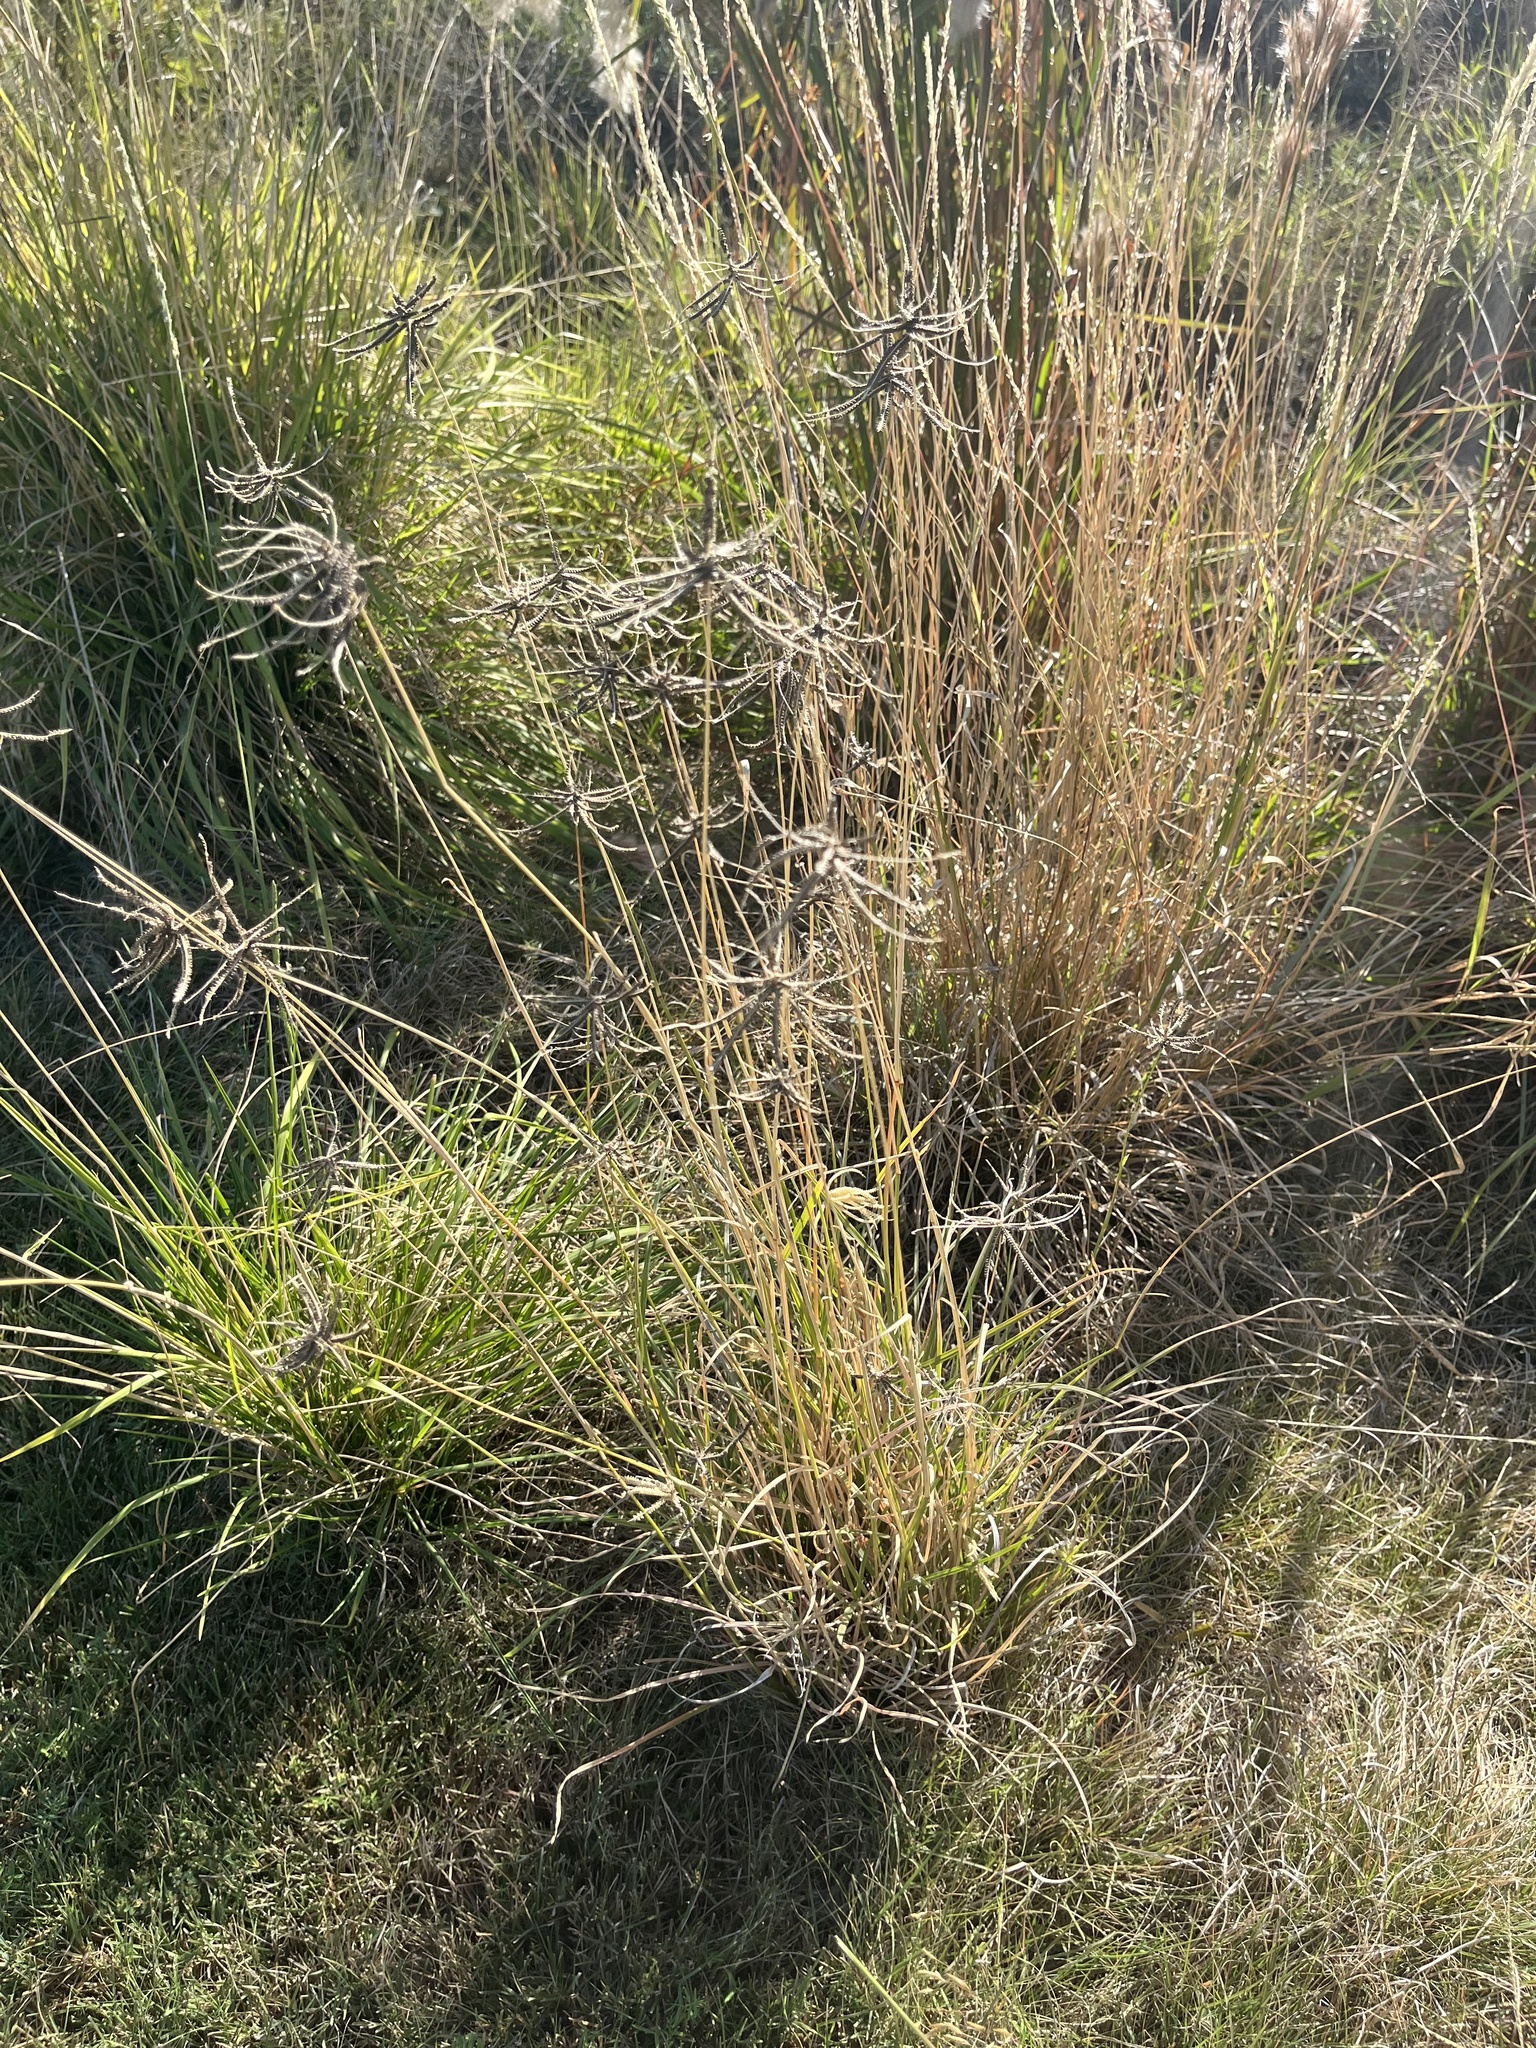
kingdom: Plantae
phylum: Tracheophyta
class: Liliopsida
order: Poales
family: Poaceae
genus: Chloris
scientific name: Chloris cucullata
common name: Hooded windmill grass
